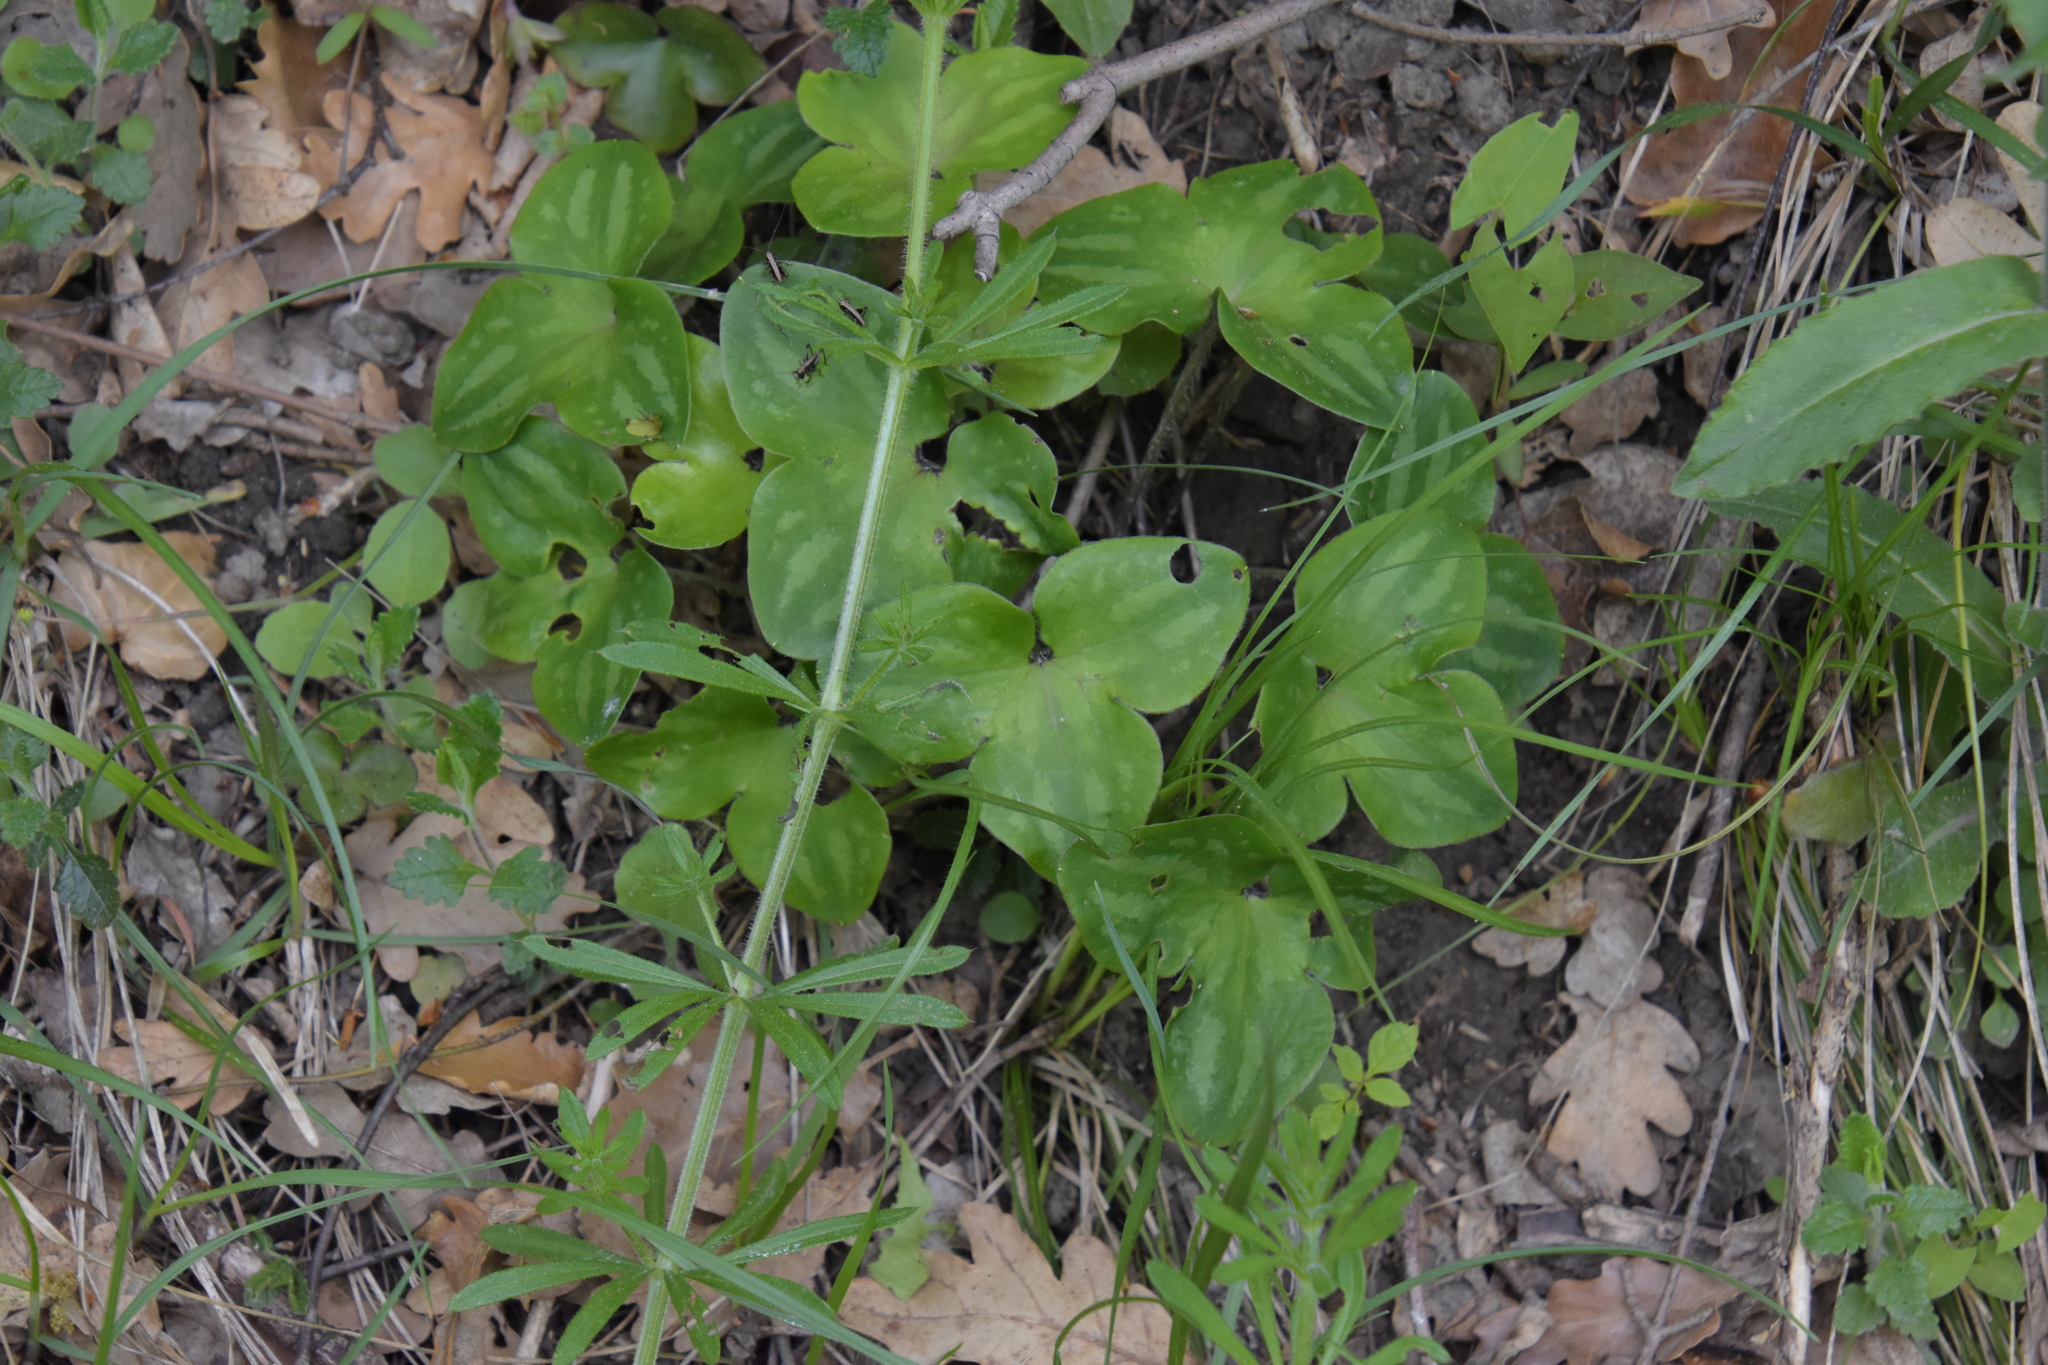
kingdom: Plantae
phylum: Tracheophyta
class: Magnoliopsida
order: Ranunculales
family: Ranunculaceae
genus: Hepatica
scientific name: Hepatica nobilis
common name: Liverleaf
